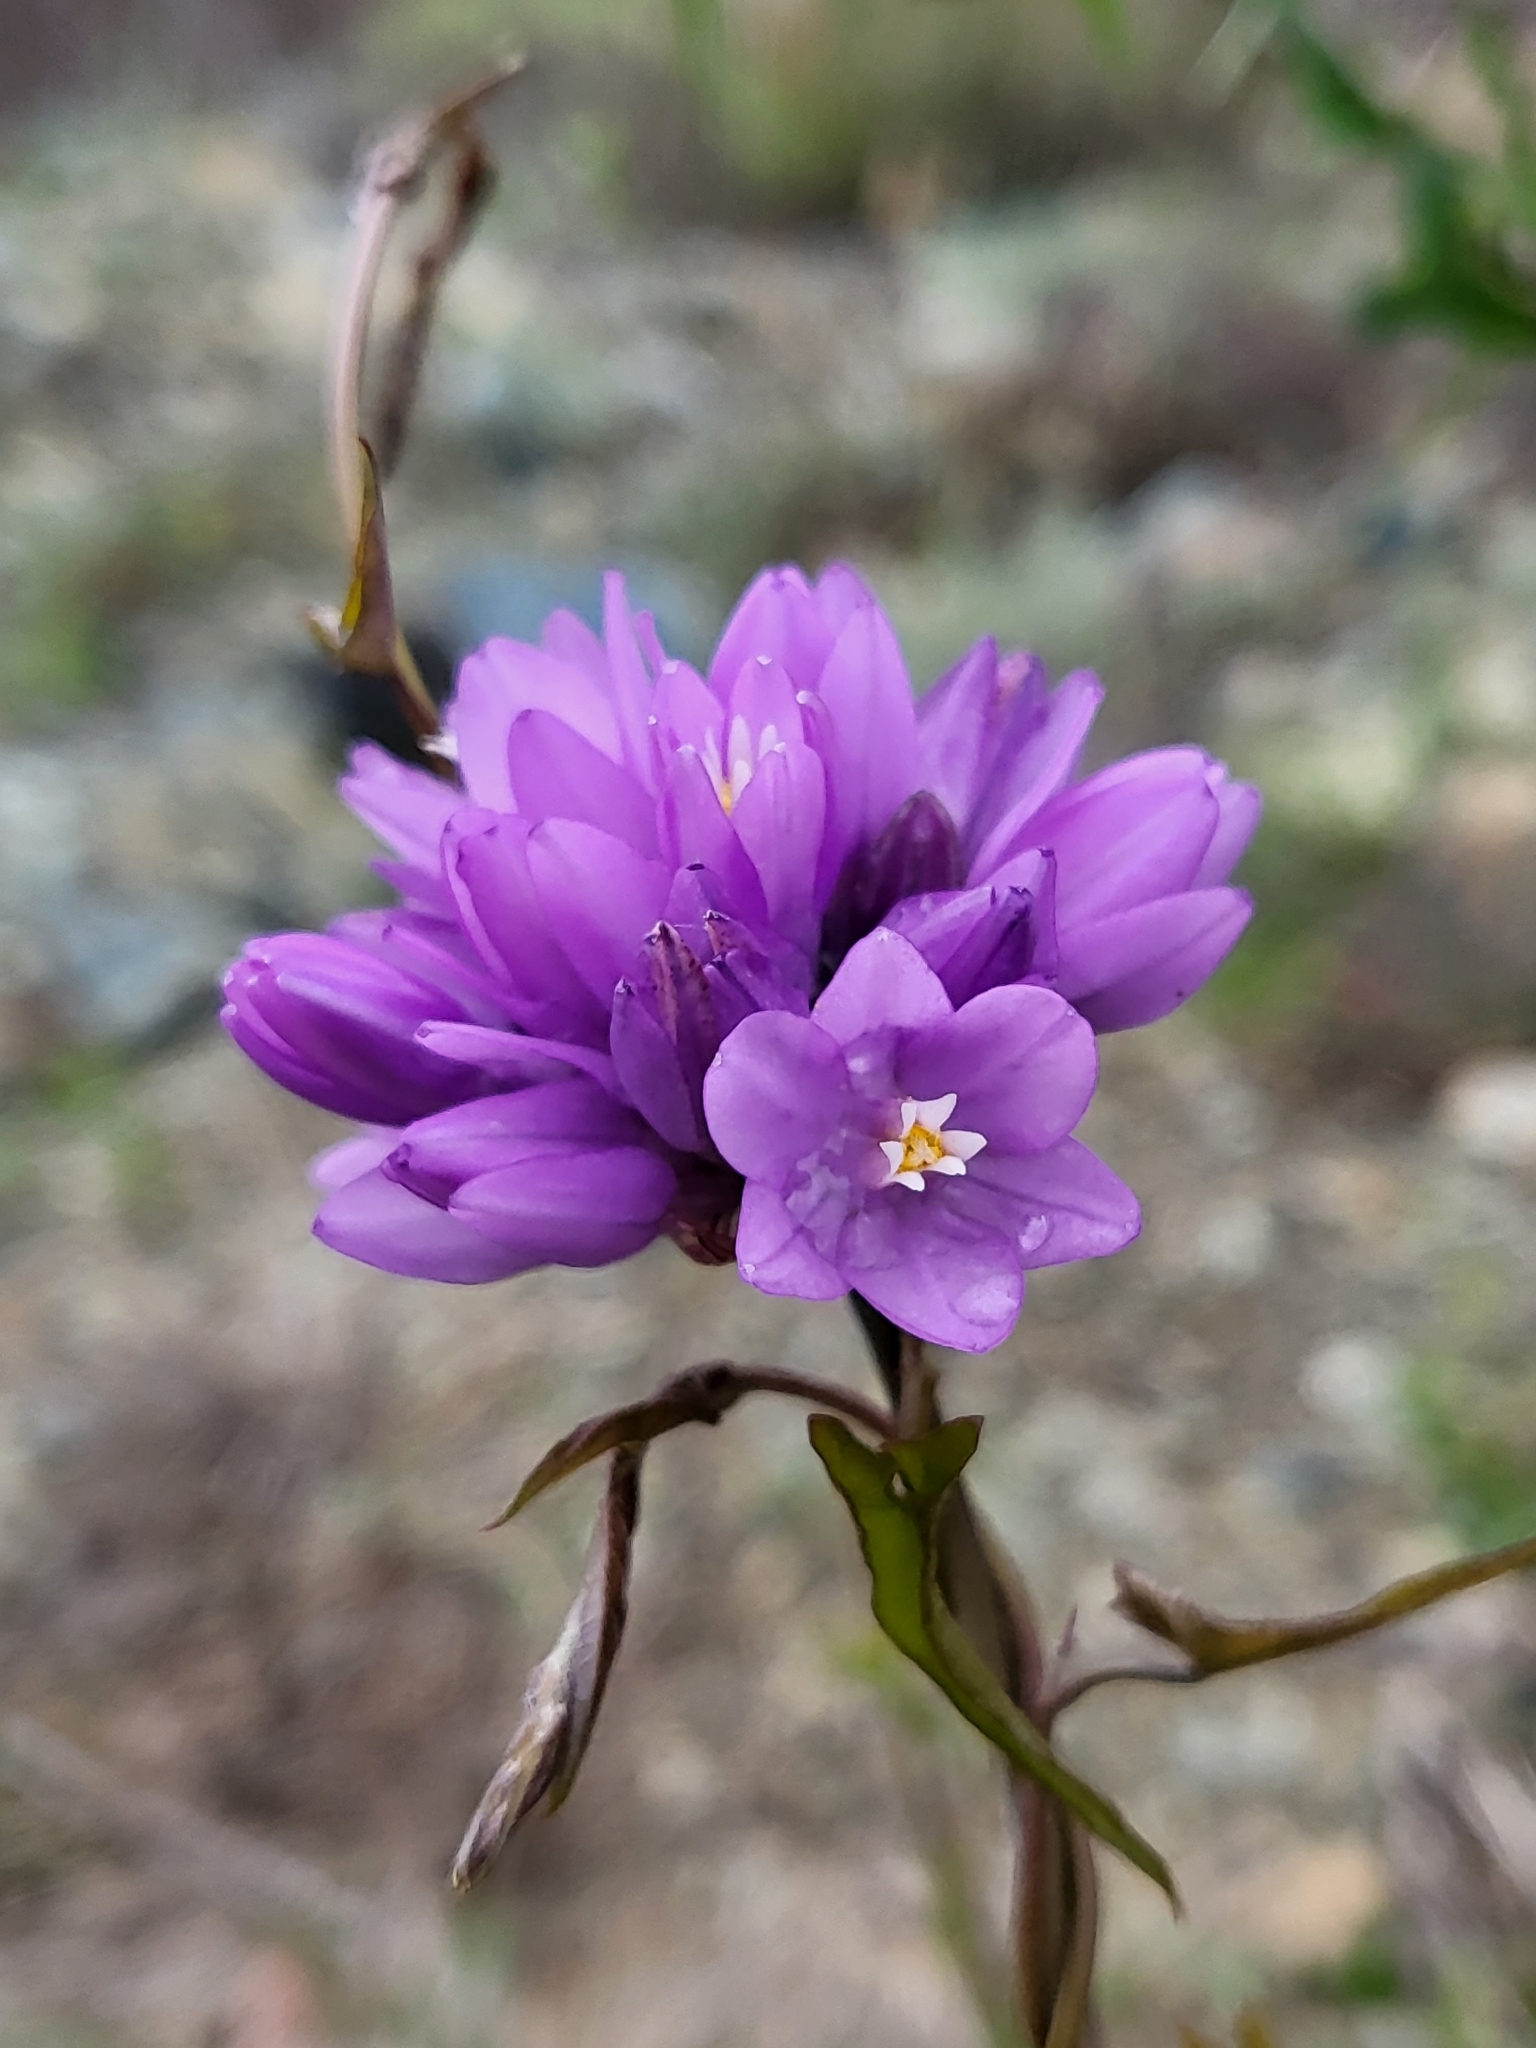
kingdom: Plantae
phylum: Tracheophyta
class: Liliopsida
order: Asparagales
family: Asparagaceae
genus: Dipterostemon
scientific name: Dipterostemon capitatus
